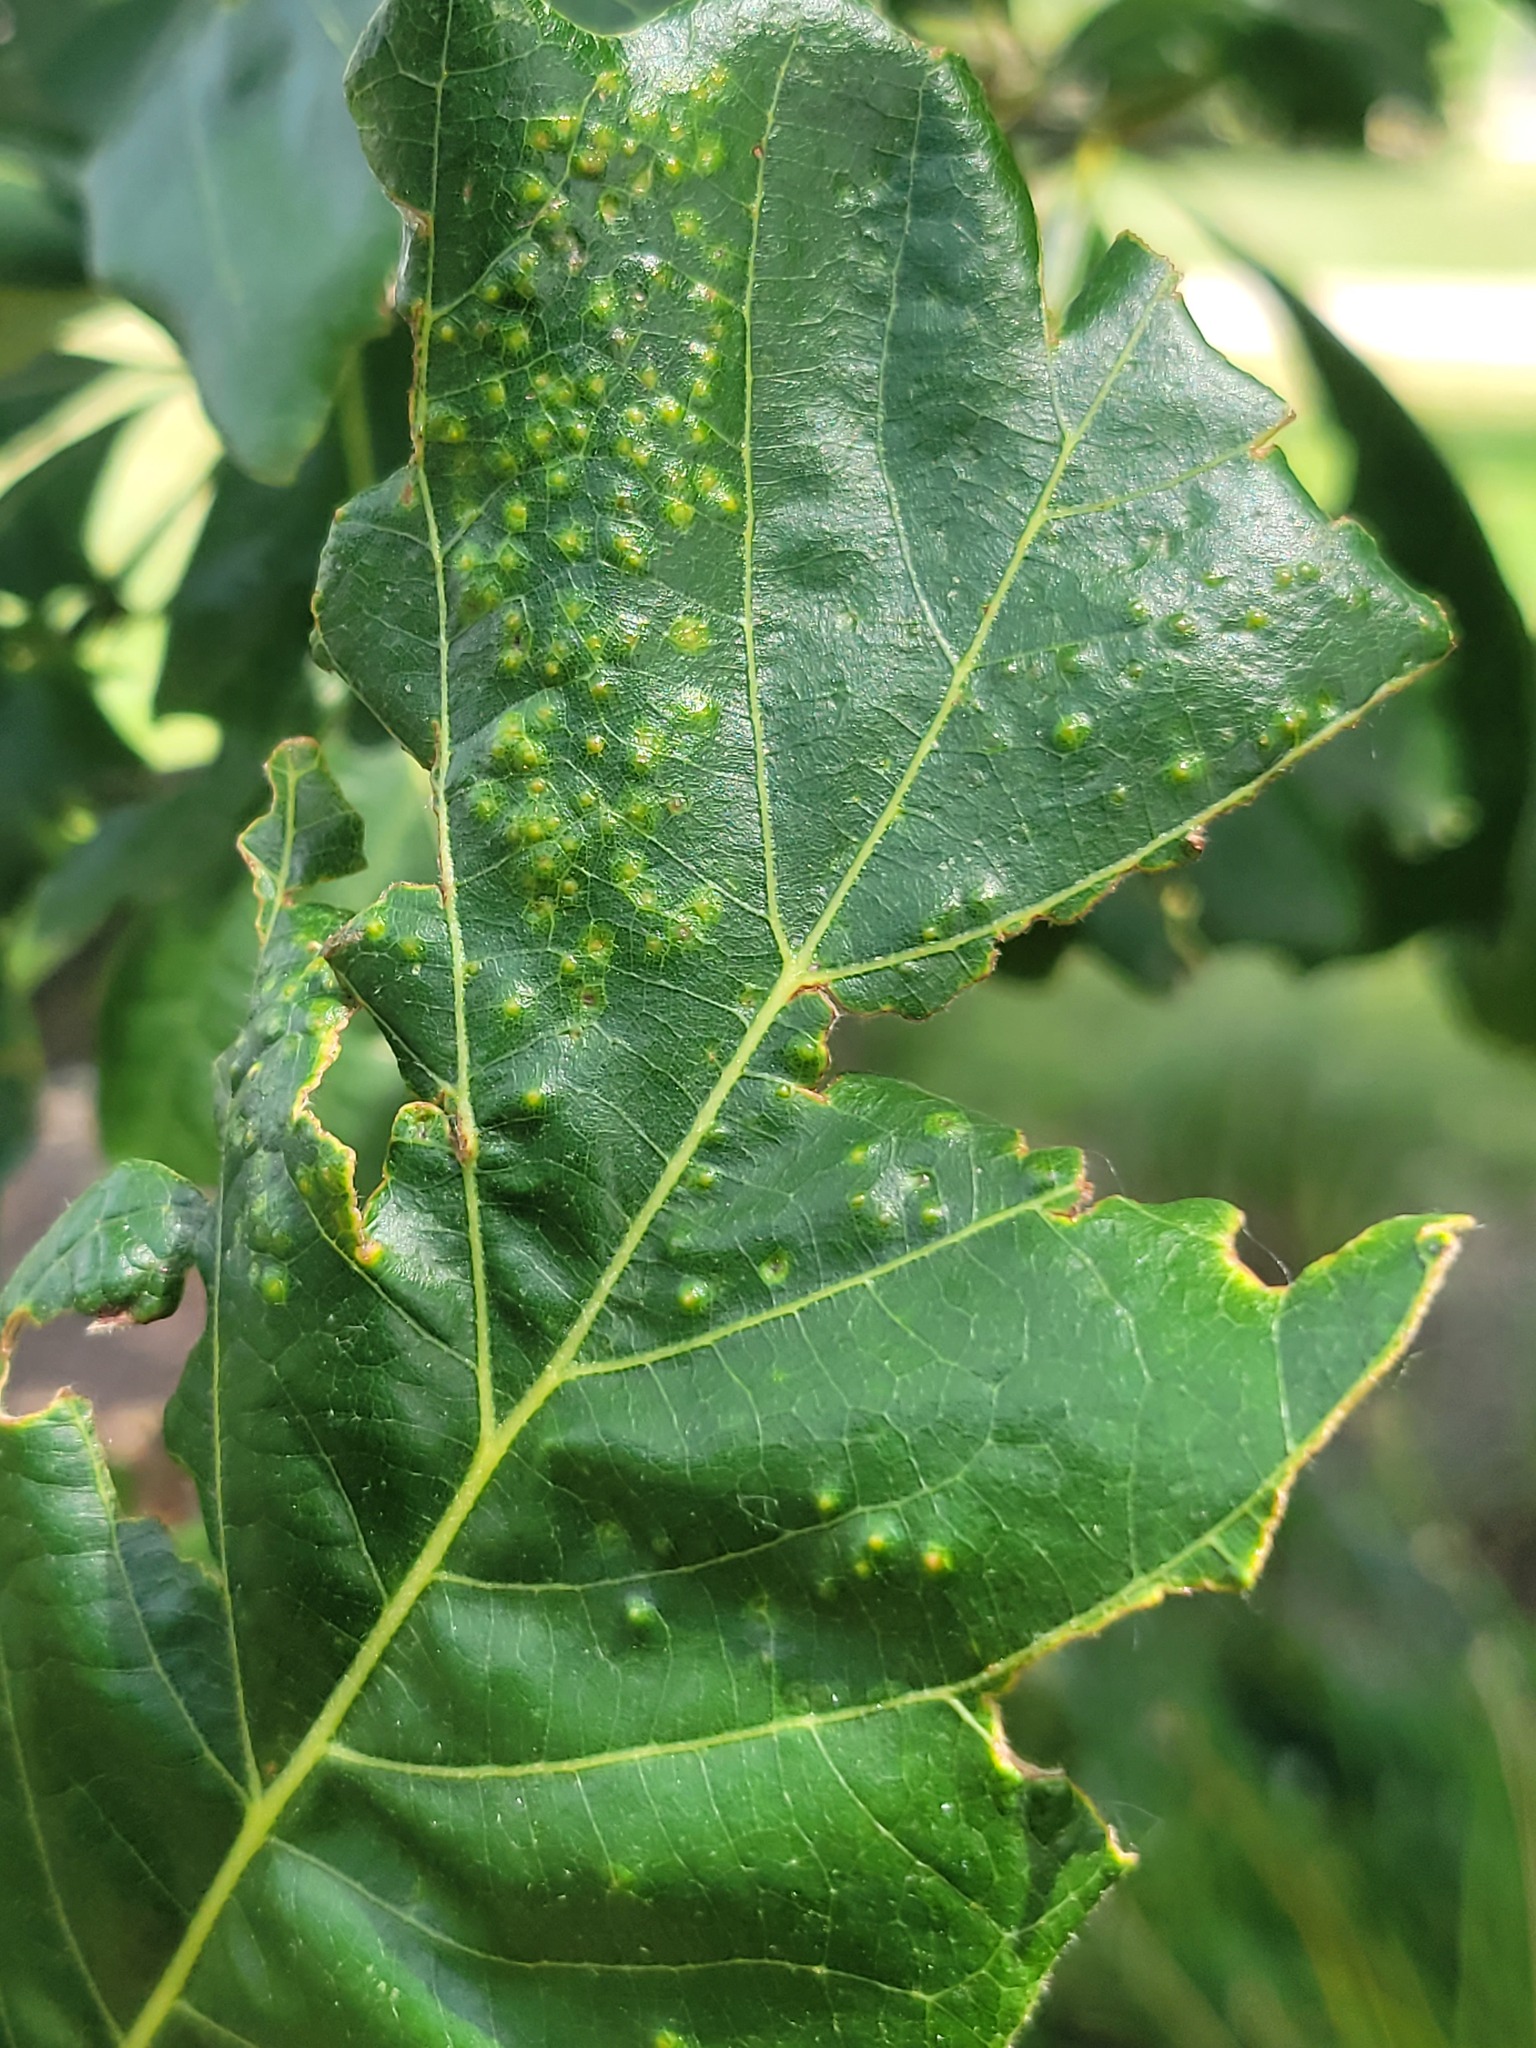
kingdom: Animalia
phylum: Arthropoda
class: Insecta
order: Hymenoptera
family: Cynipidae
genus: Andricus
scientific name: Andricus
